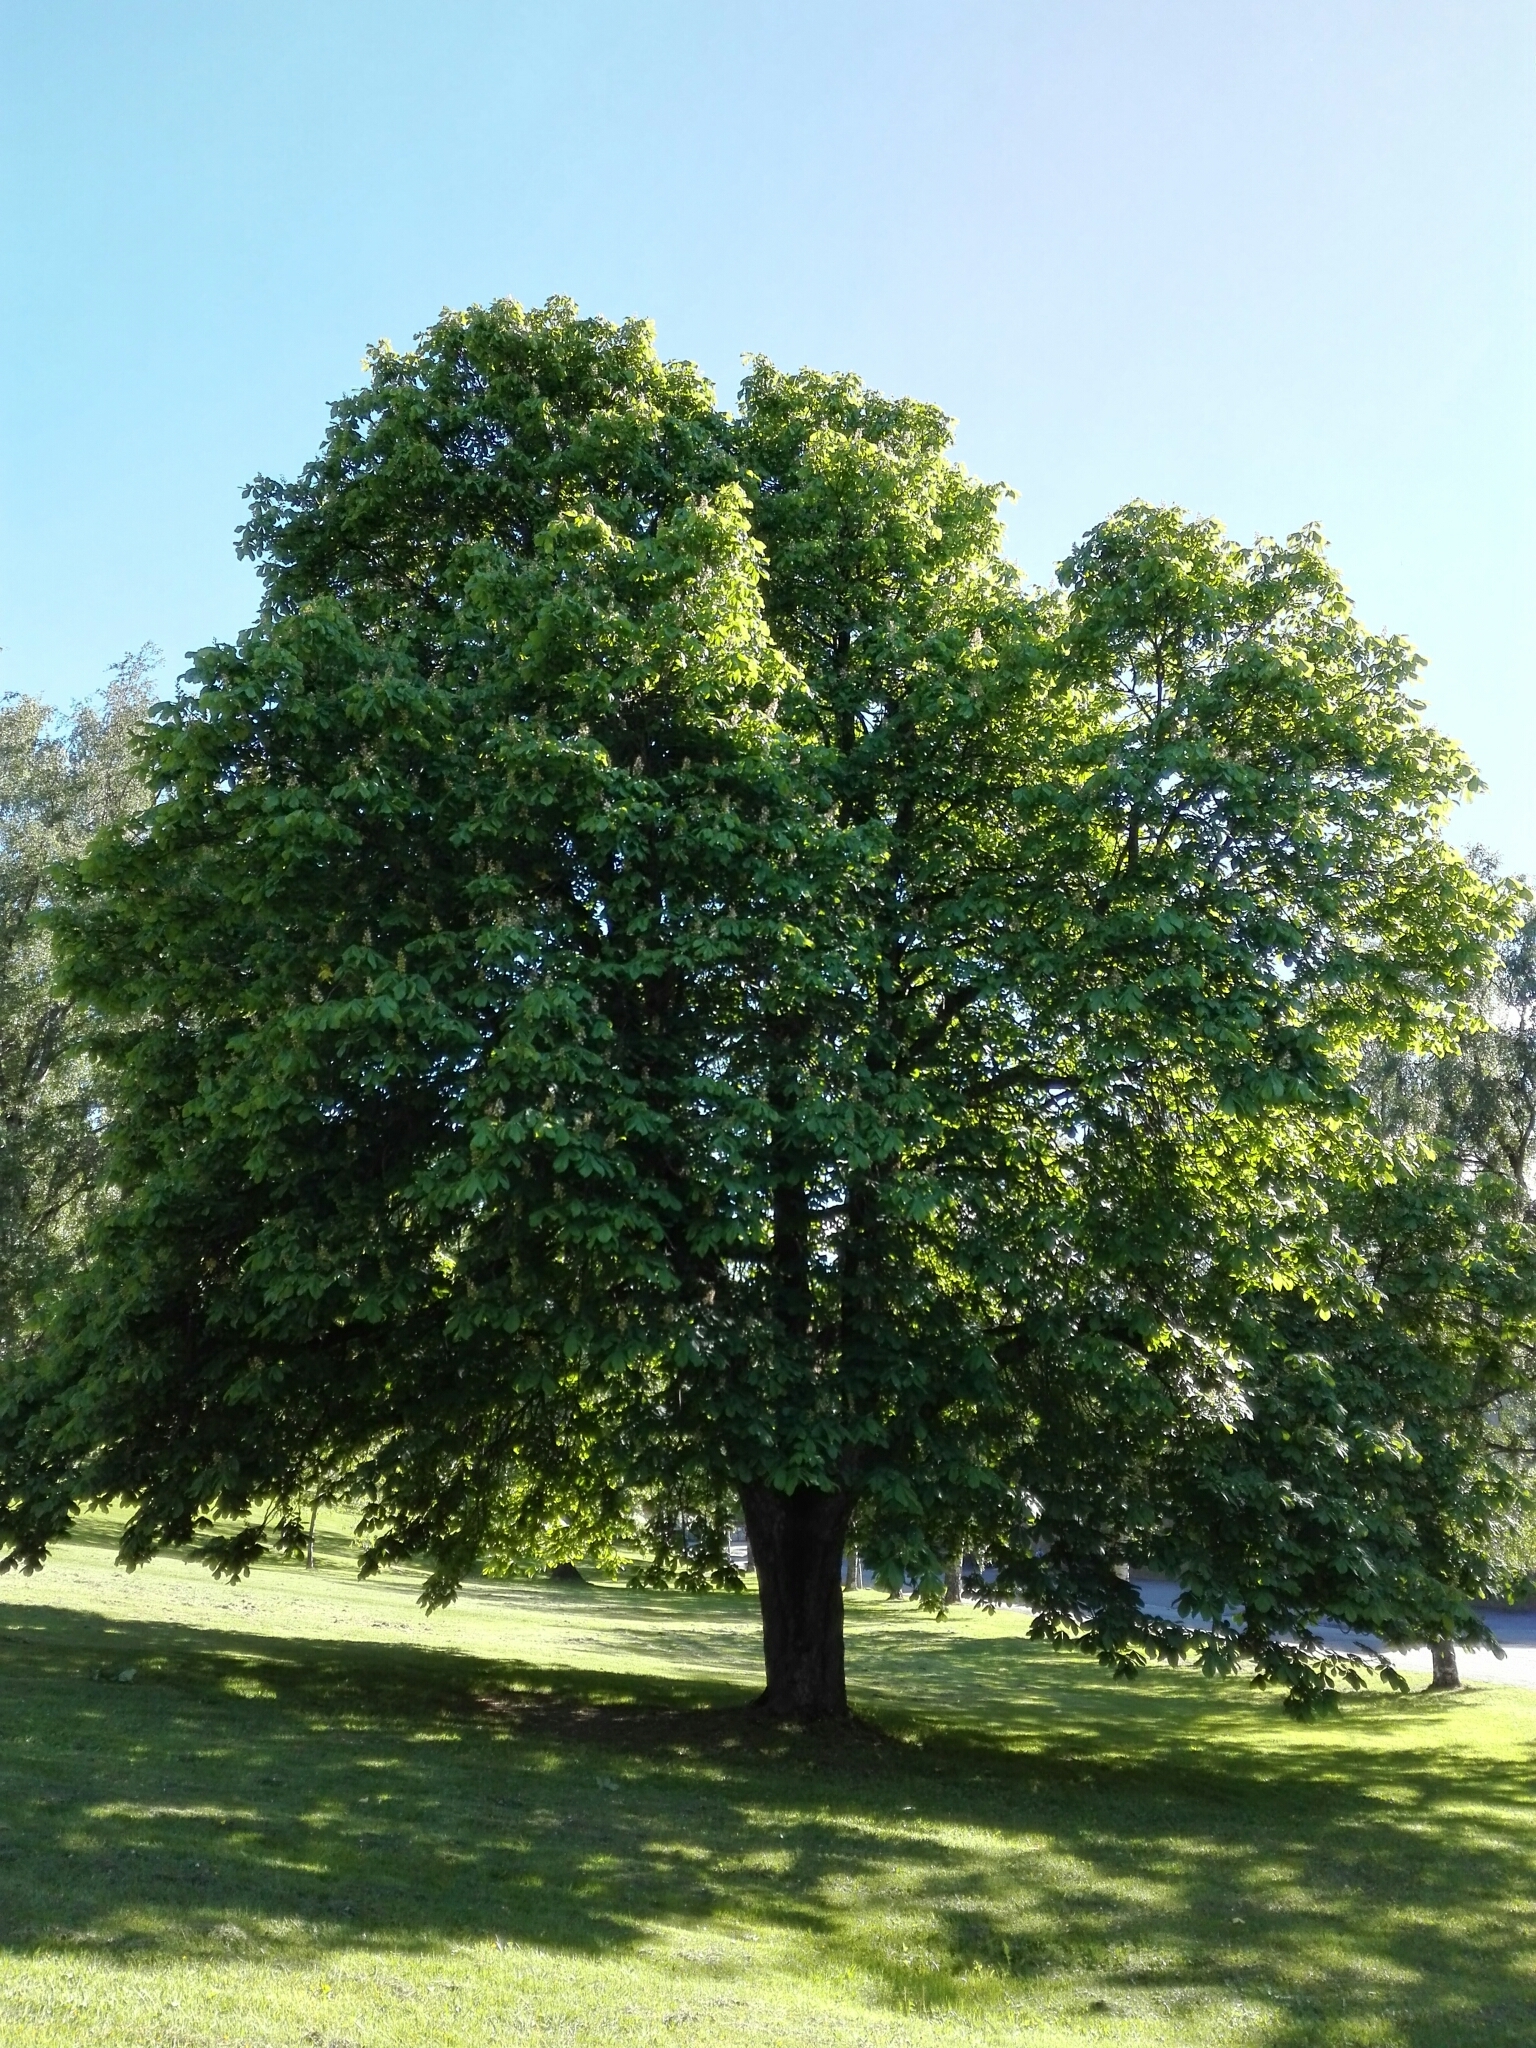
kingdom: Plantae
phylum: Tracheophyta
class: Magnoliopsida
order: Sapindales
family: Sapindaceae
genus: Aesculus
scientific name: Aesculus hippocastanum
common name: Horse-chestnut
